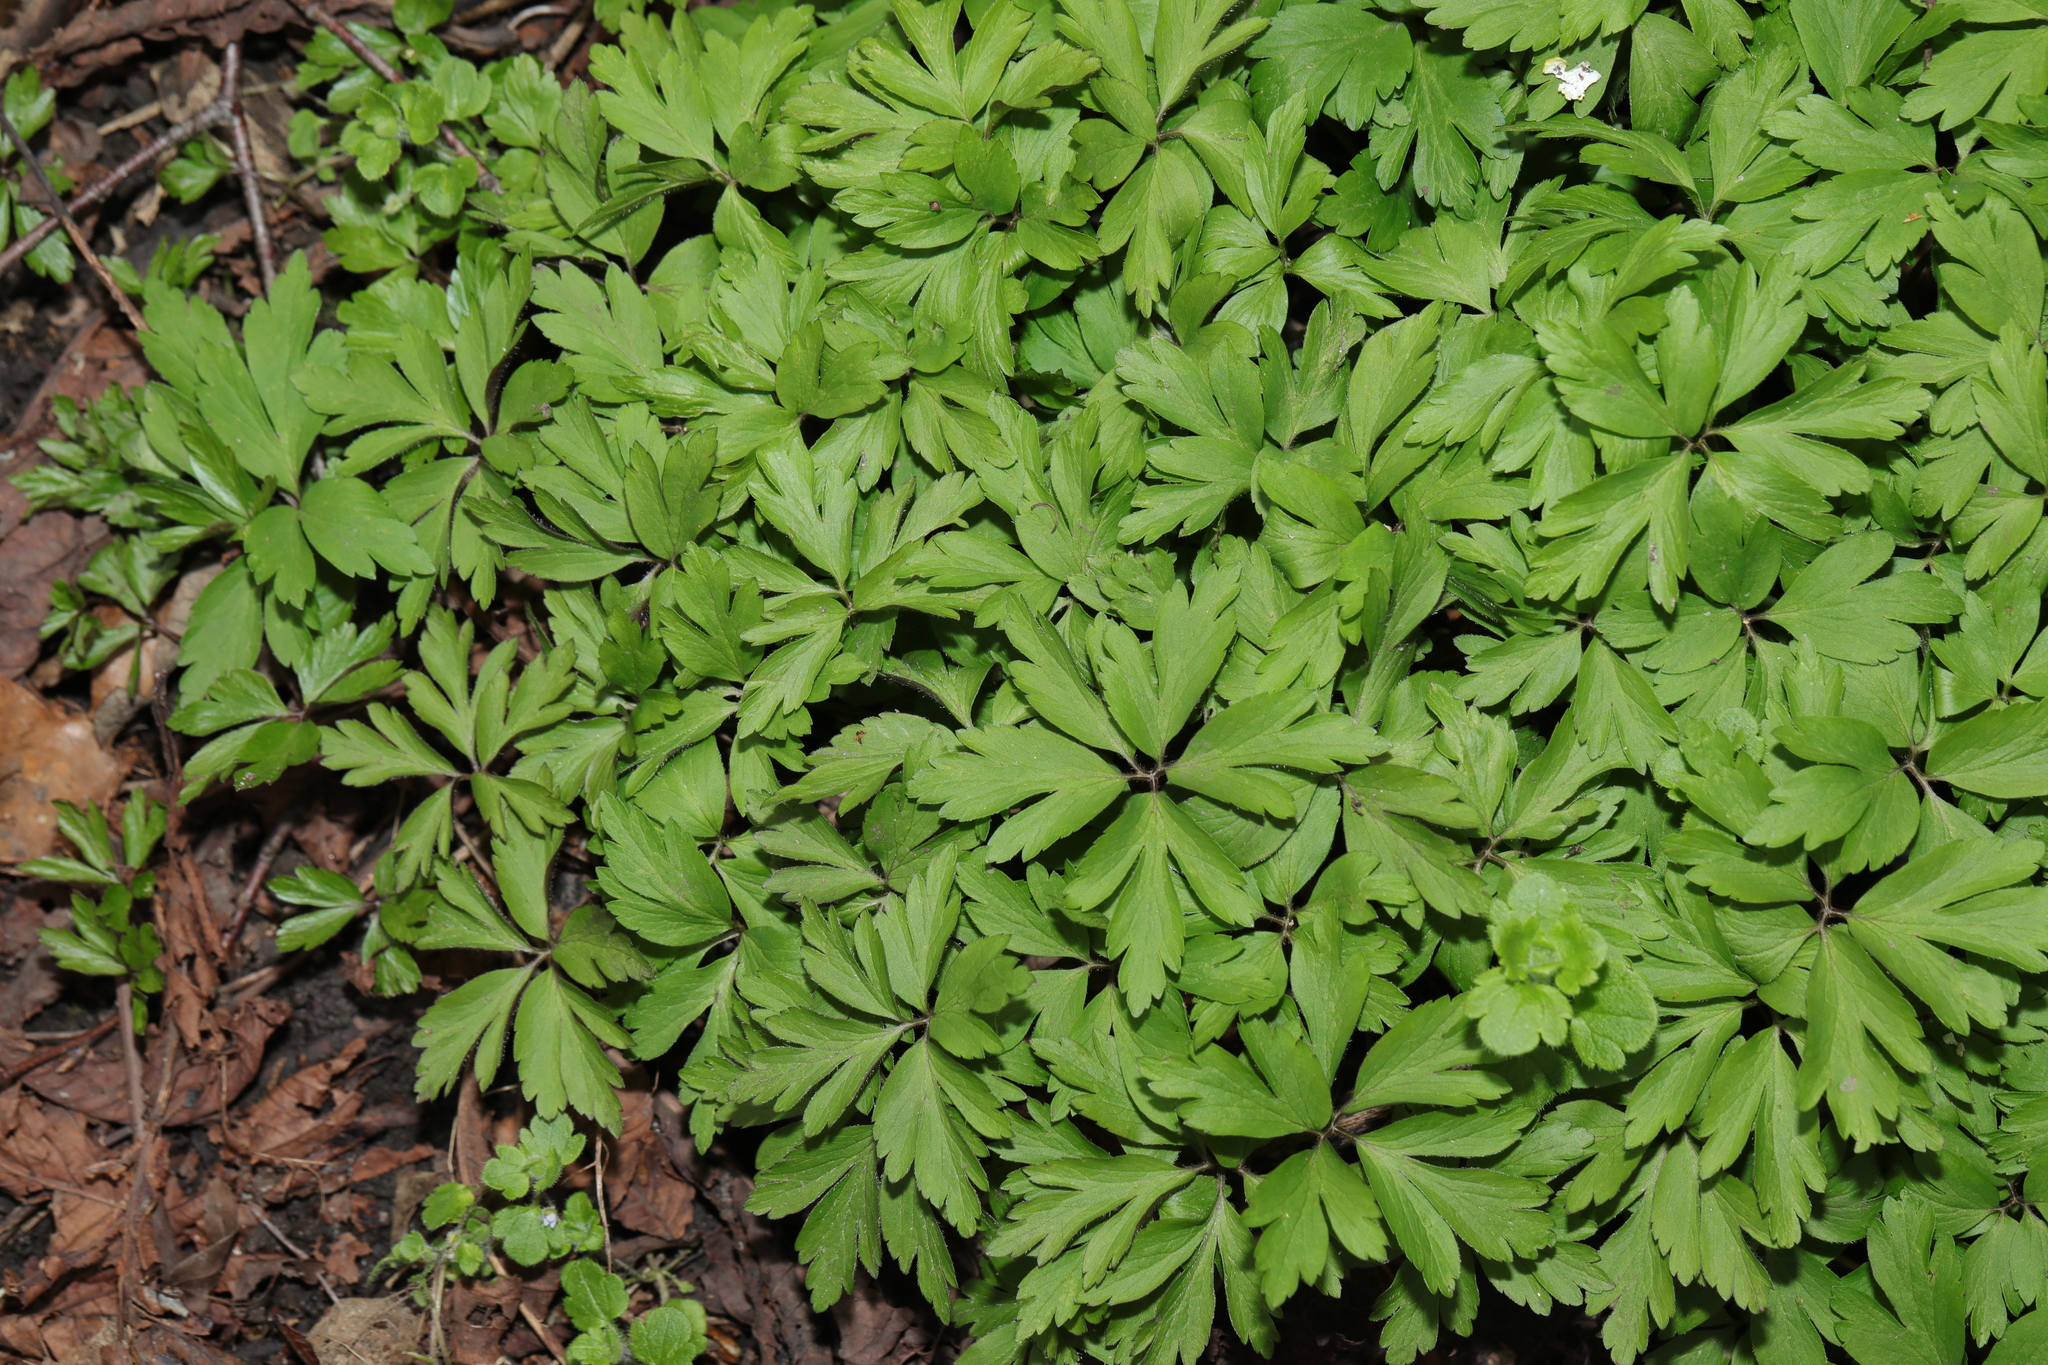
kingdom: Plantae
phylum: Tracheophyta
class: Magnoliopsida
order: Ranunculales
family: Ranunculaceae
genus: Anemone
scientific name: Anemone nemorosa
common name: Wood anemone
